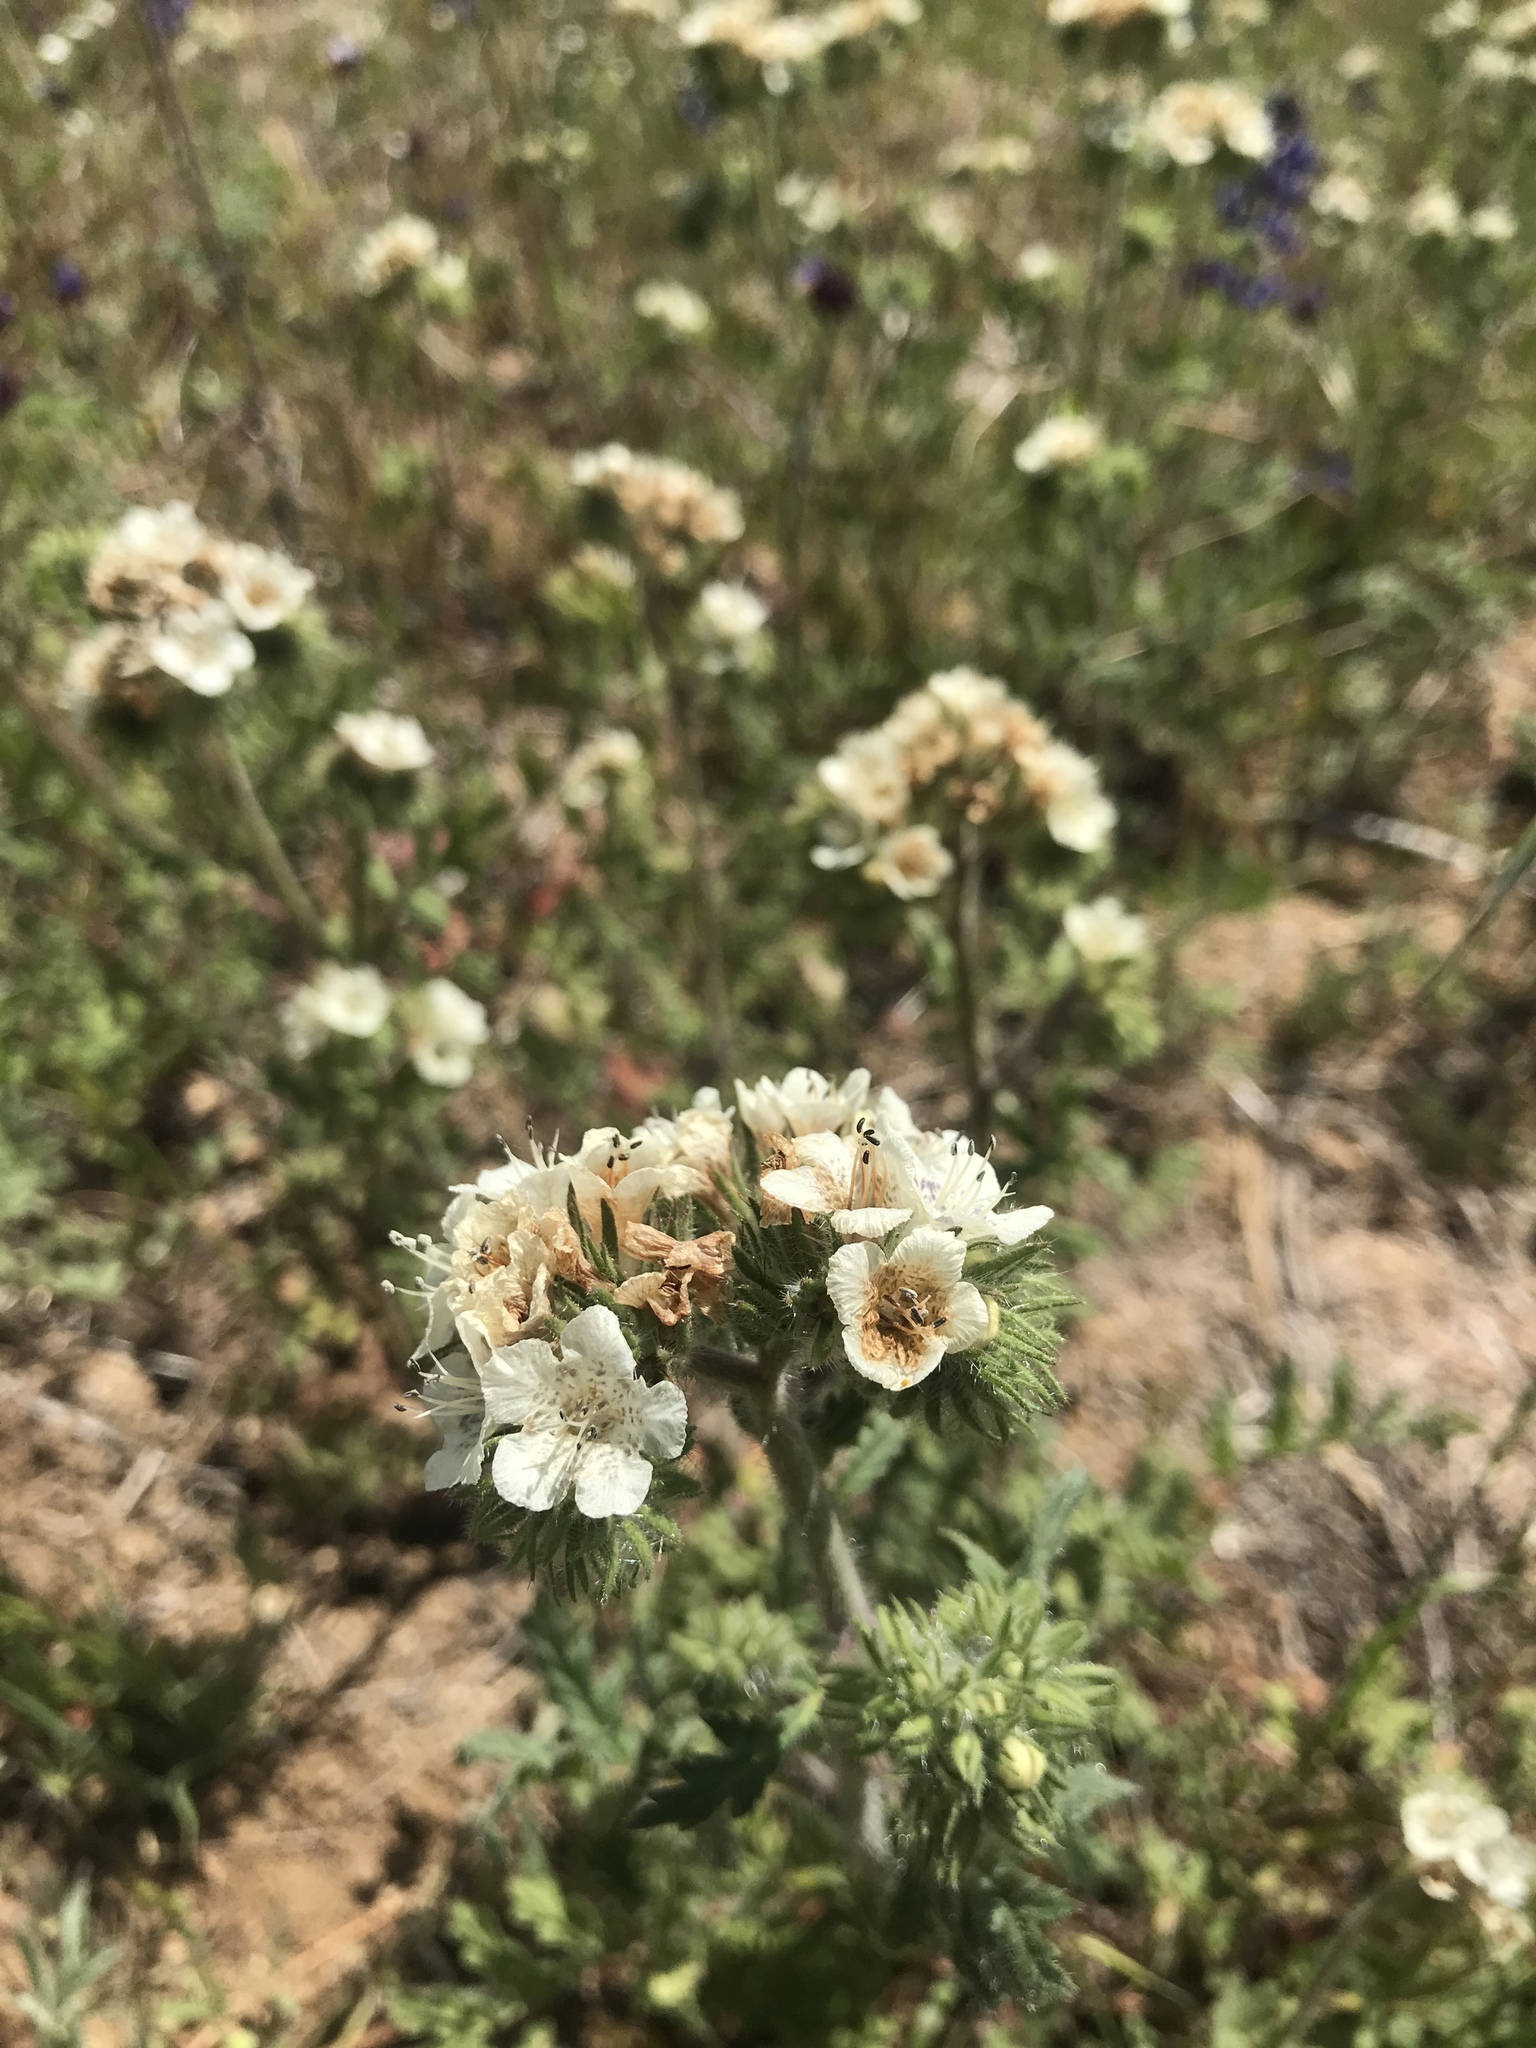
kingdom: Plantae
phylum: Tracheophyta
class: Magnoliopsida
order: Boraginales
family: Hydrophyllaceae
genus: Phacelia
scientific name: Phacelia cicutaria
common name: Caterpillar phacelia
